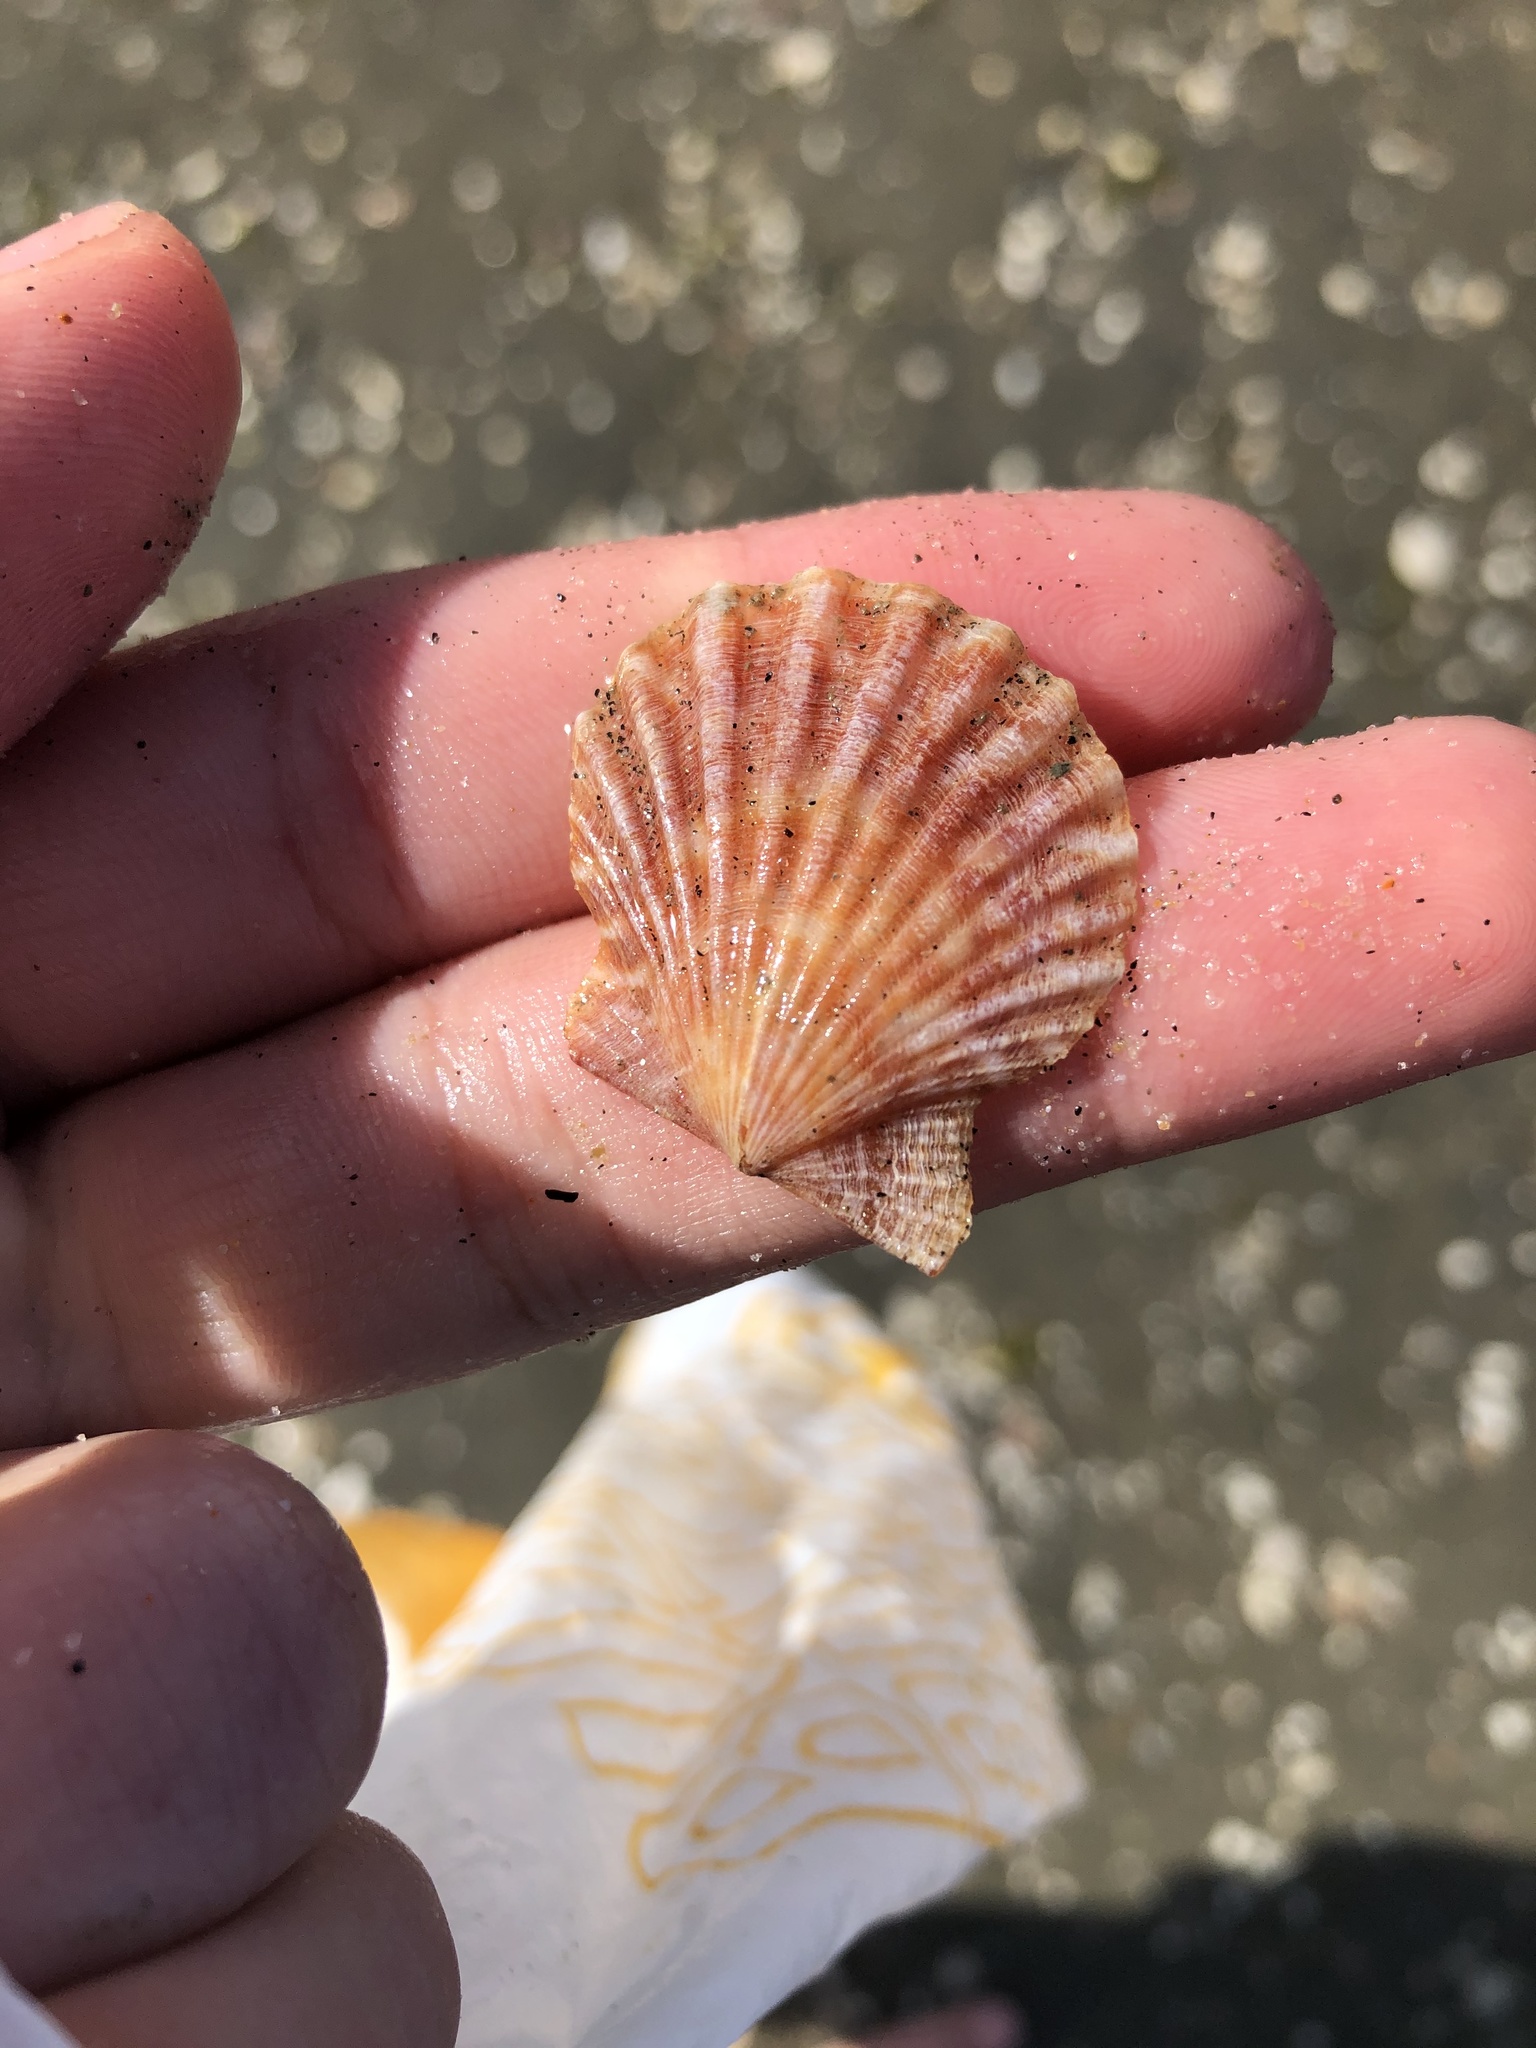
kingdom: Animalia
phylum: Mollusca
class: Bivalvia
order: Pectinida
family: Pectinidae
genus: Leptopecten
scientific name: Leptopecten latiauratus
